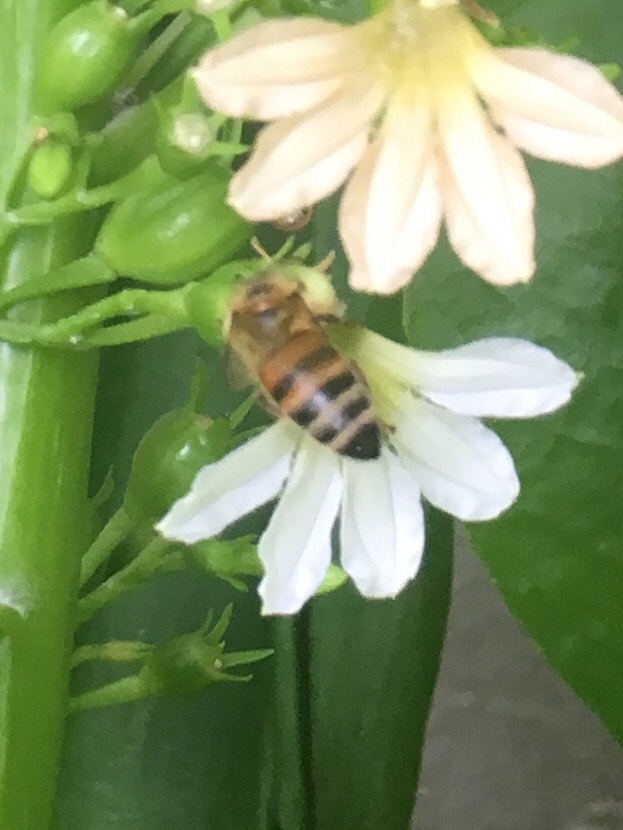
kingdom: Animalia
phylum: Arthropoda
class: Insecta
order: Hymenoptera
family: Apidae
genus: Apis
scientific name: Apis mellifera
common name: Honey bee
